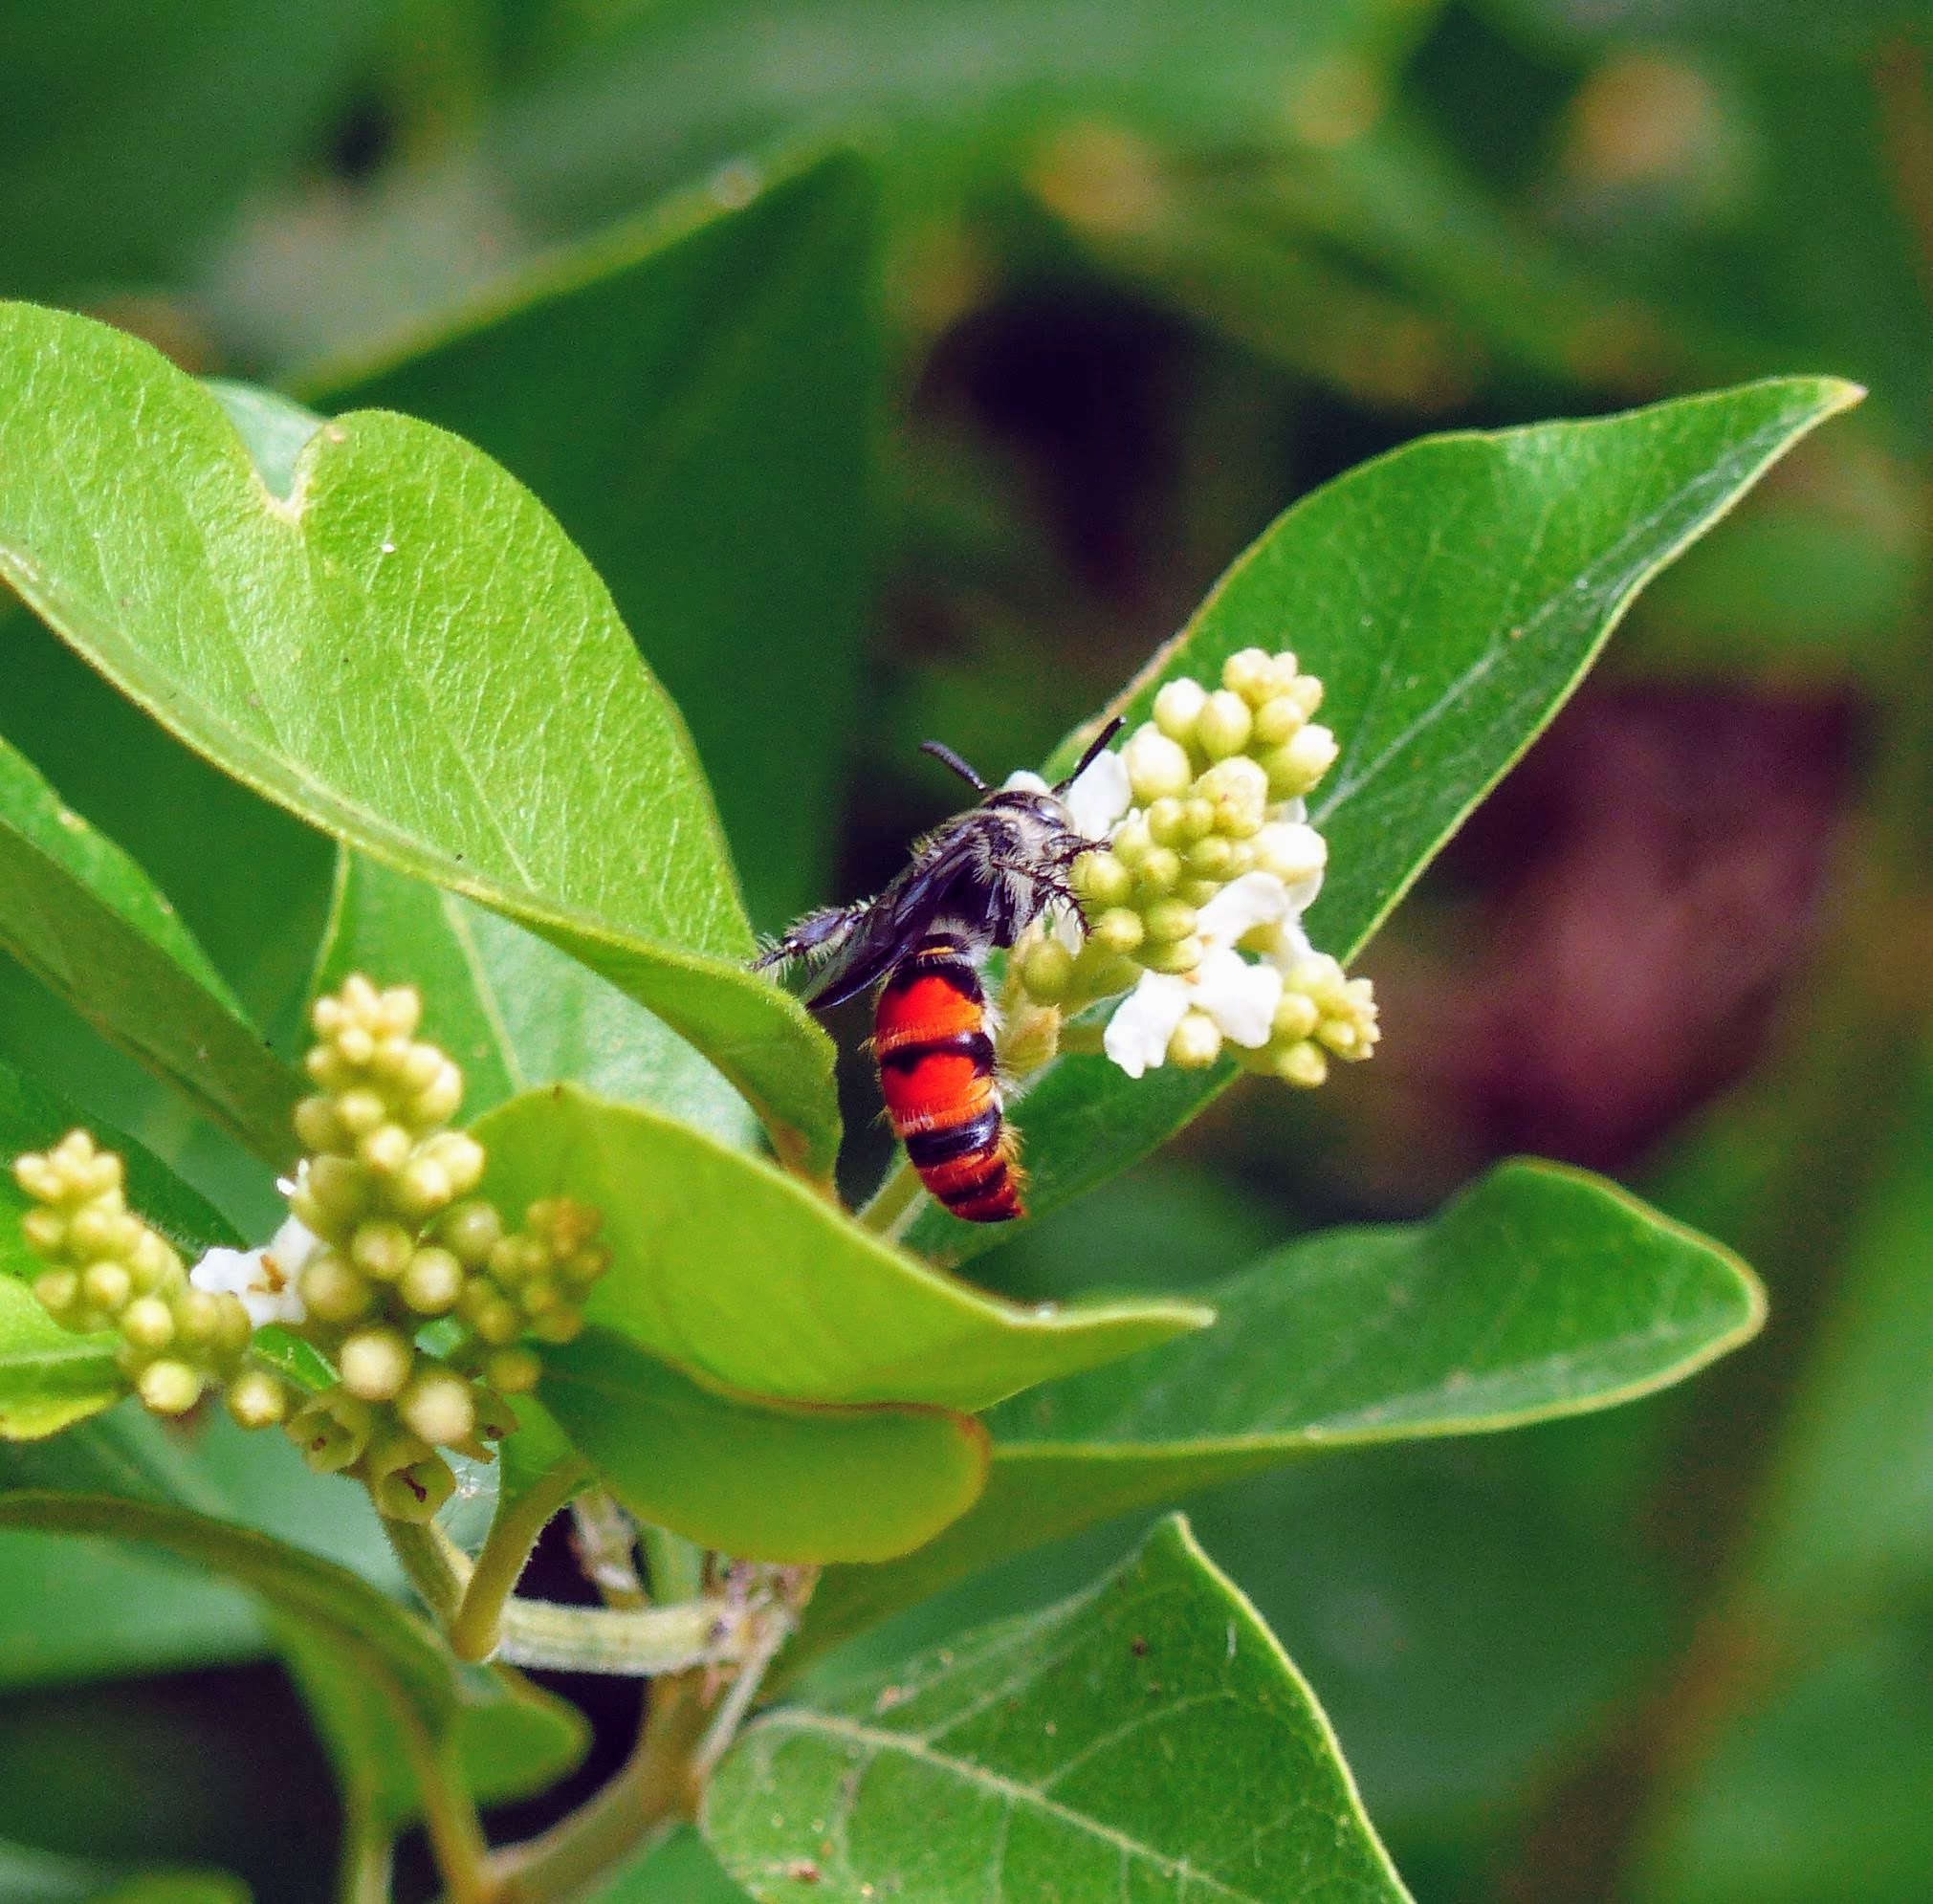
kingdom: Animalia
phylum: Arthropoda
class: Insecta
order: Hymenoptera
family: Scoliidae
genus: Dielis
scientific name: Dielis tolteca
